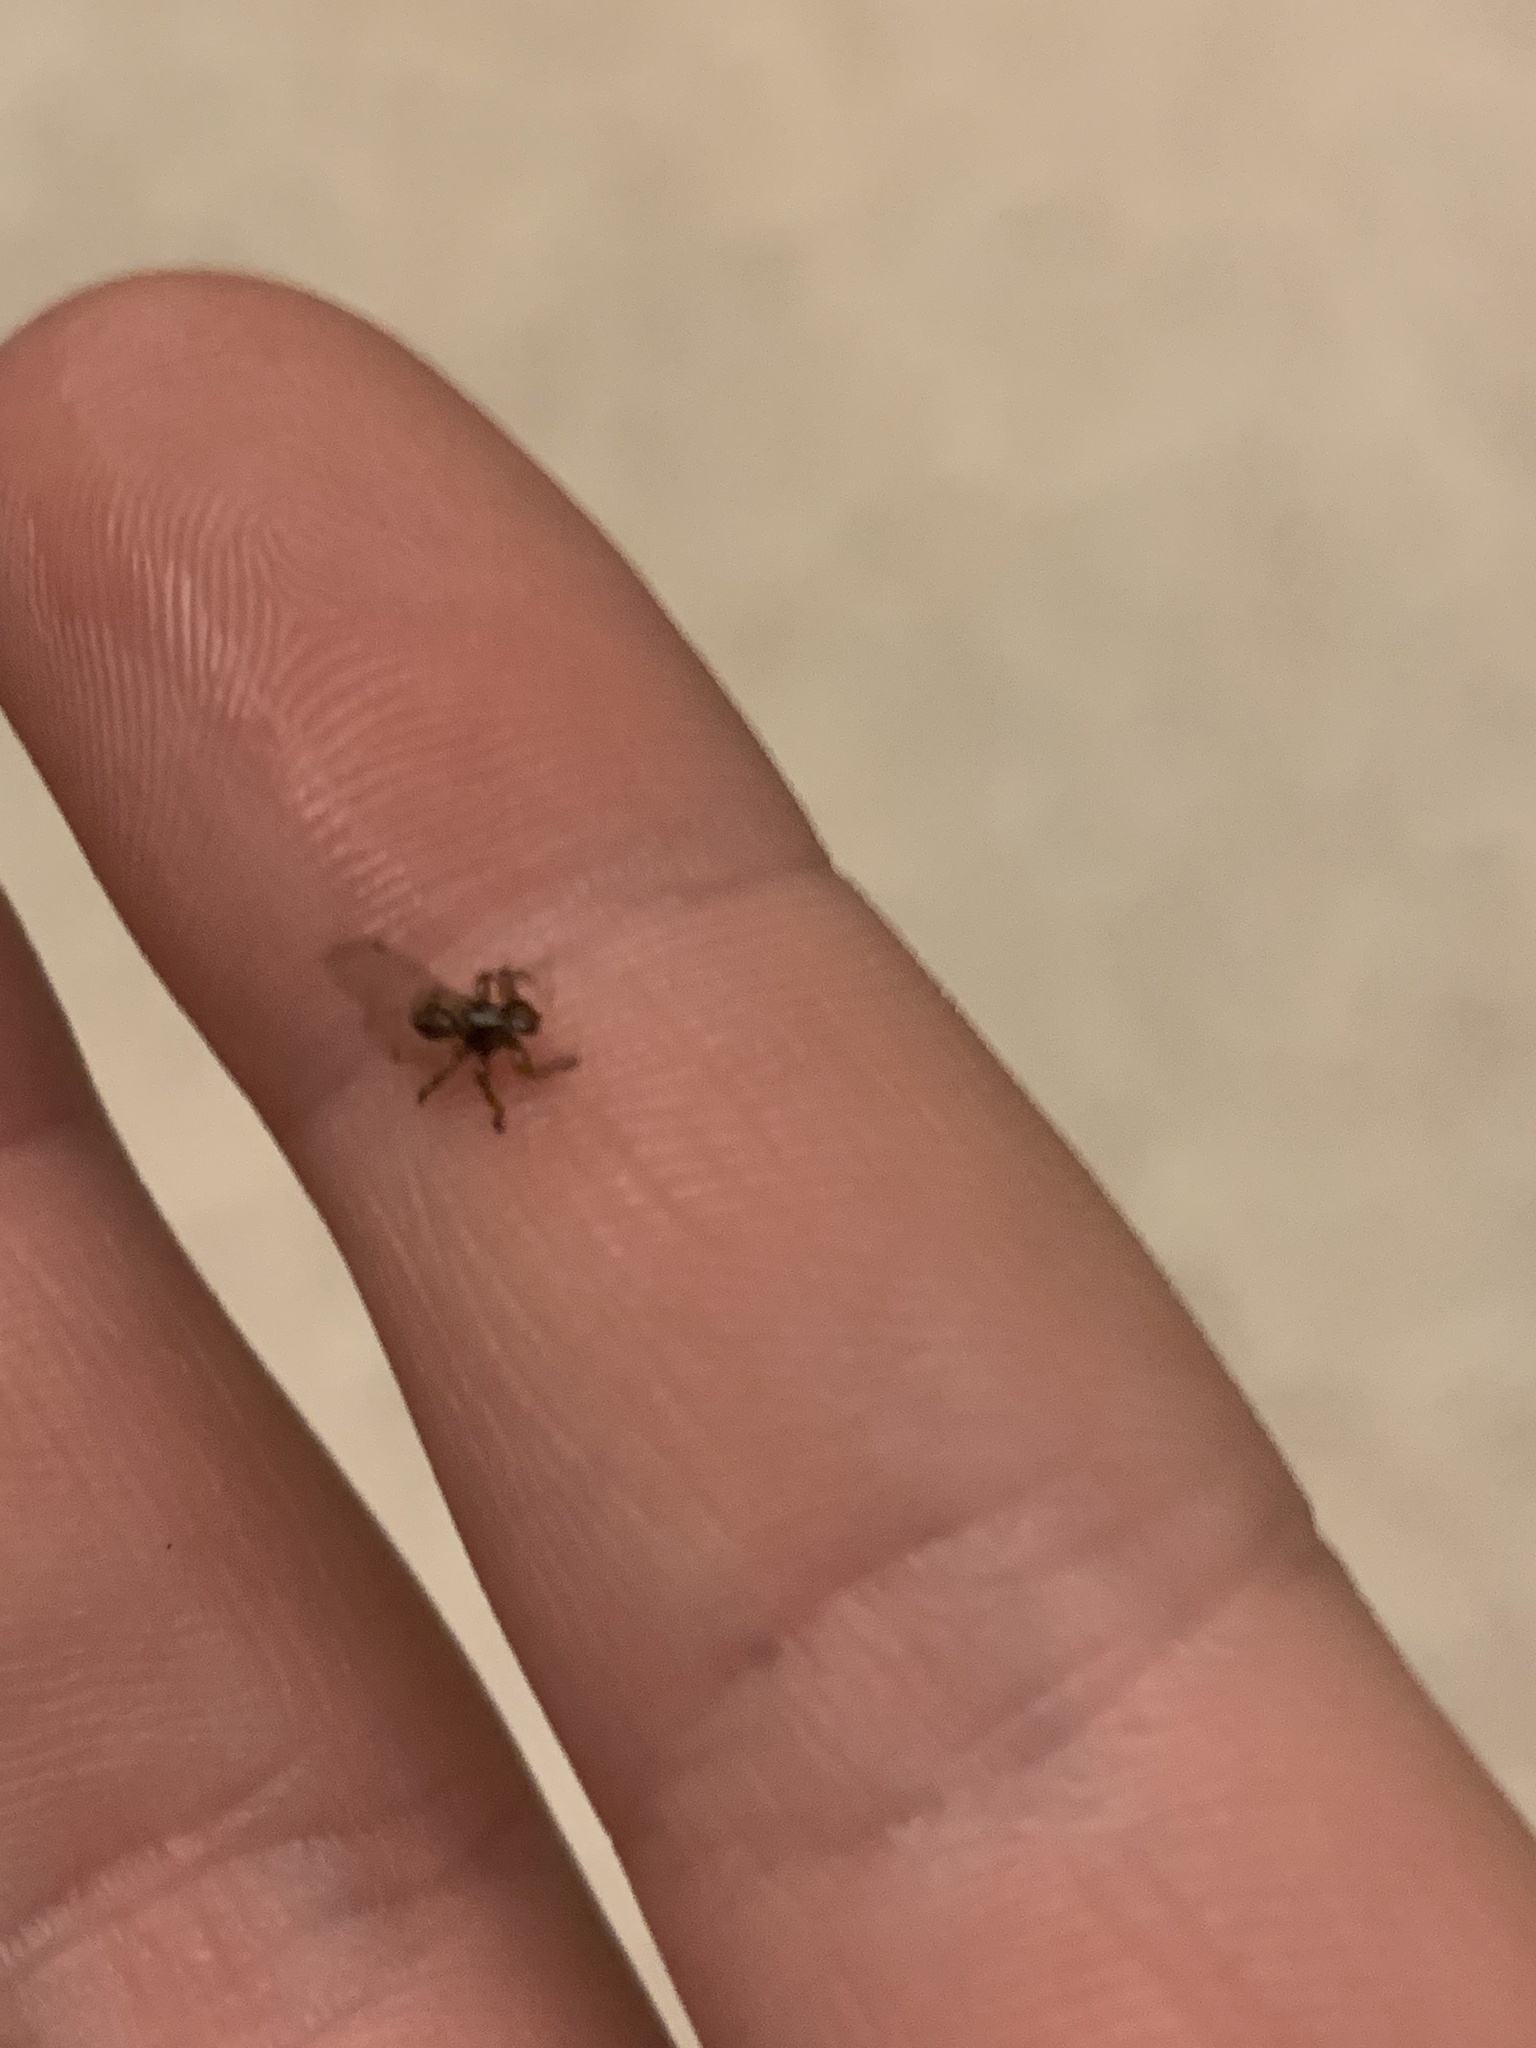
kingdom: Animalia
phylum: Arthropoda
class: Insecta
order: Diptera
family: Hippoboscidae
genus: Lipoptena
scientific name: Lipoptena depressa
